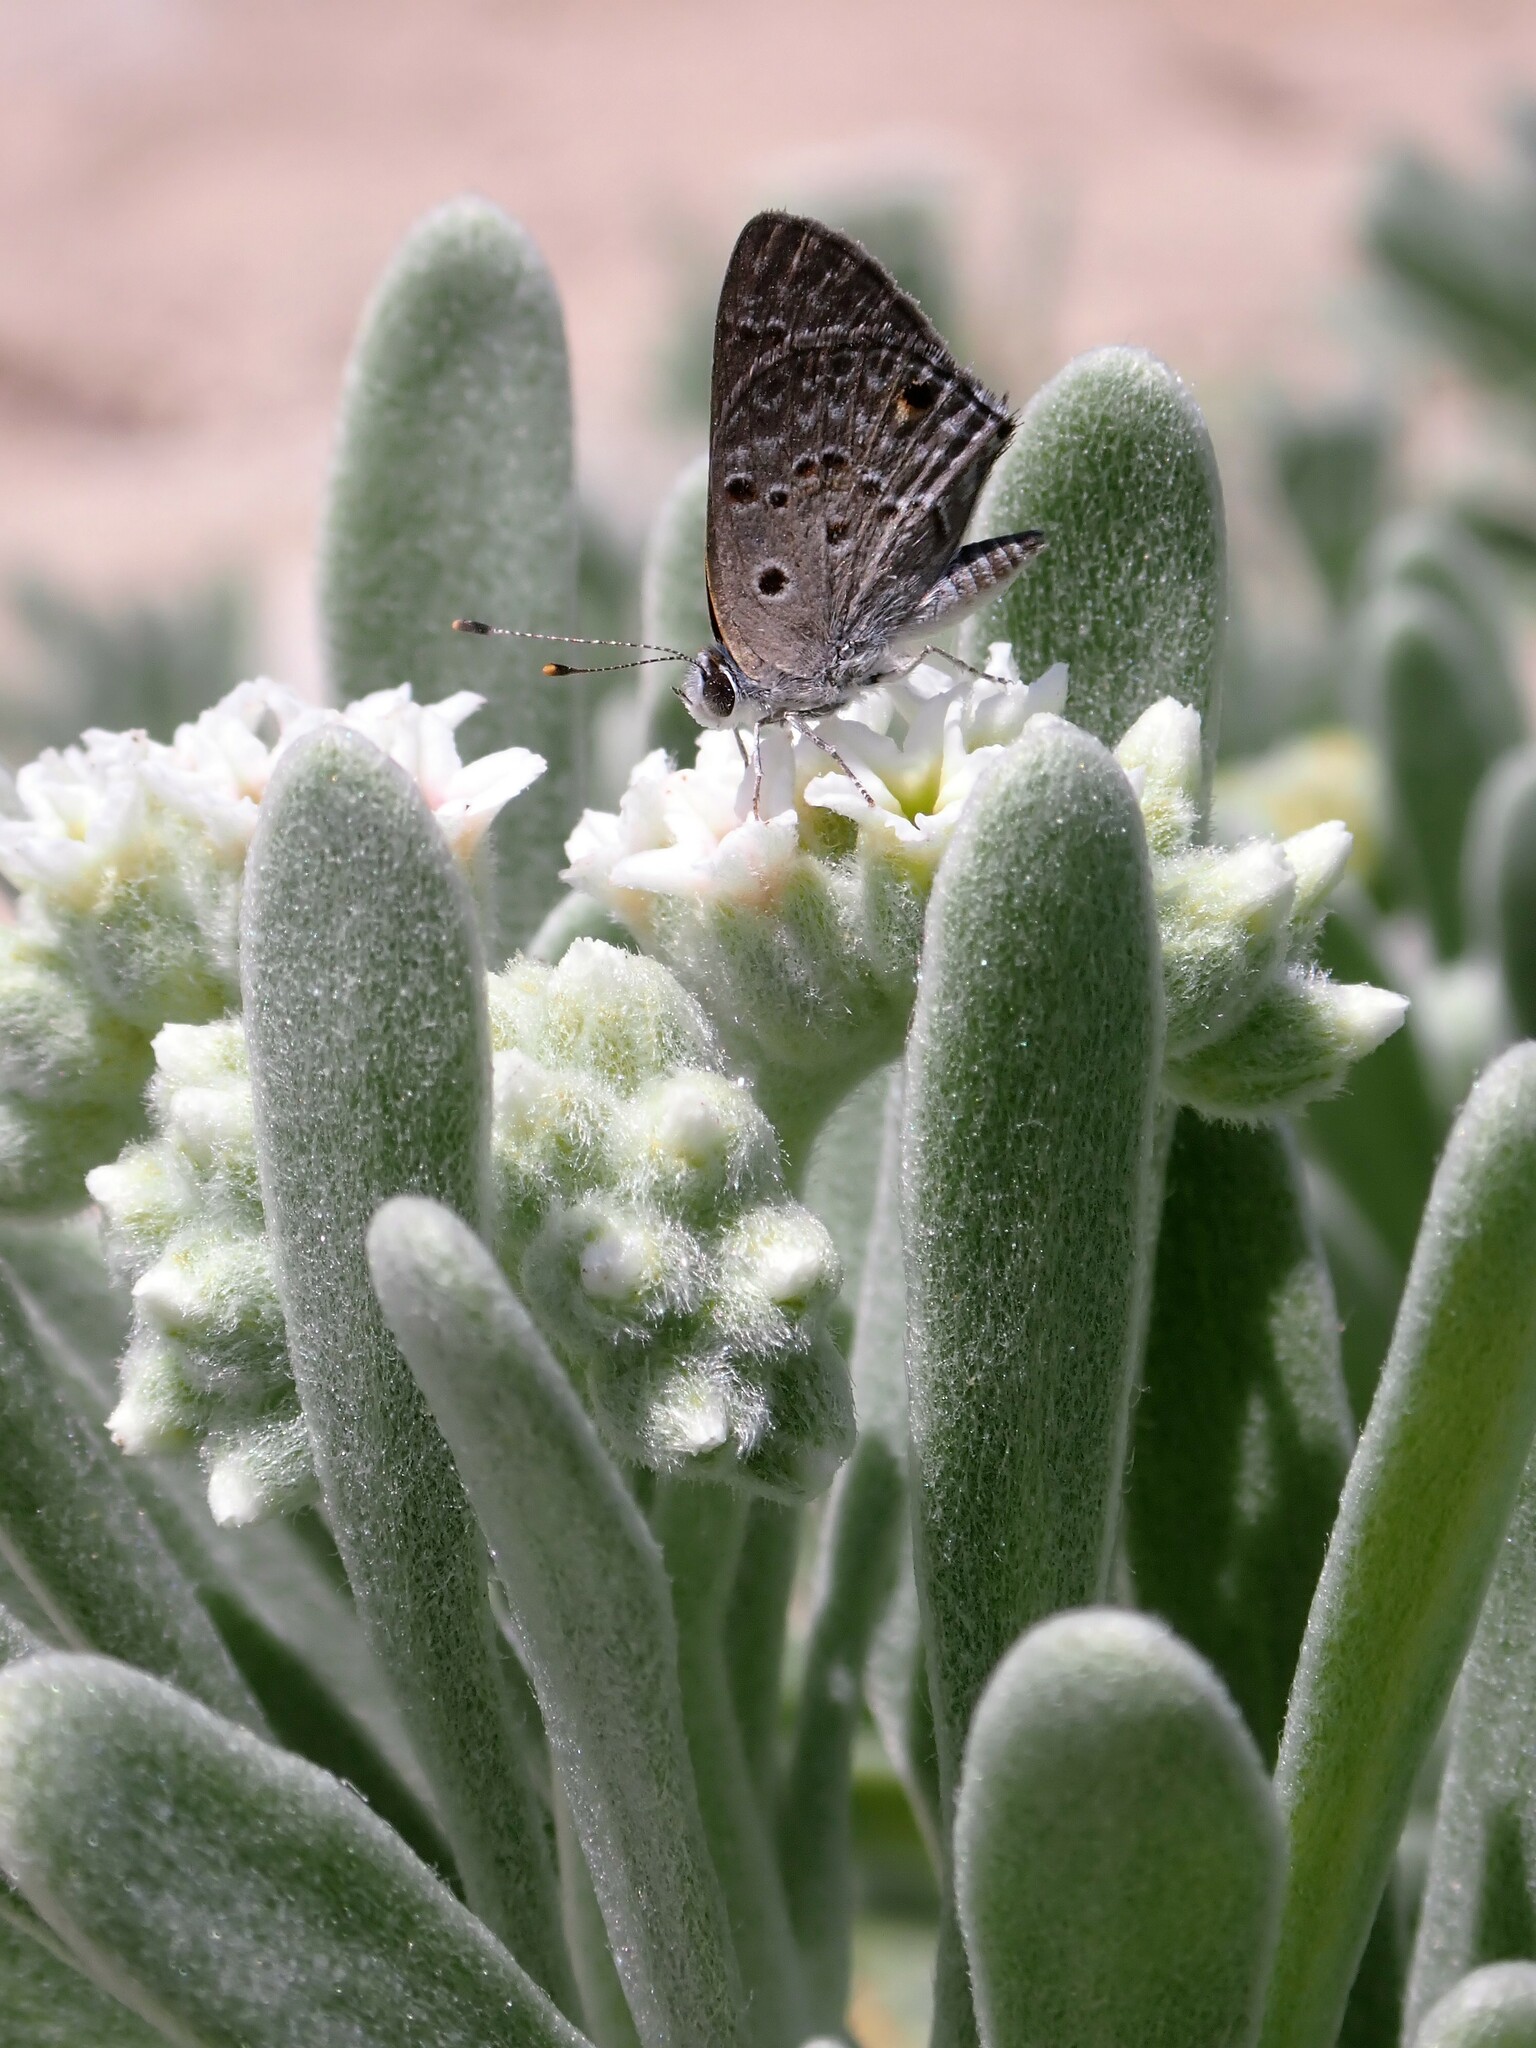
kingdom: Animalia
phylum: Arthropoda
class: Insecta
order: Lepidoptera
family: Lycaenidae
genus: Strymon
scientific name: Strymon bubastus
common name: Bubastes hairstreak
